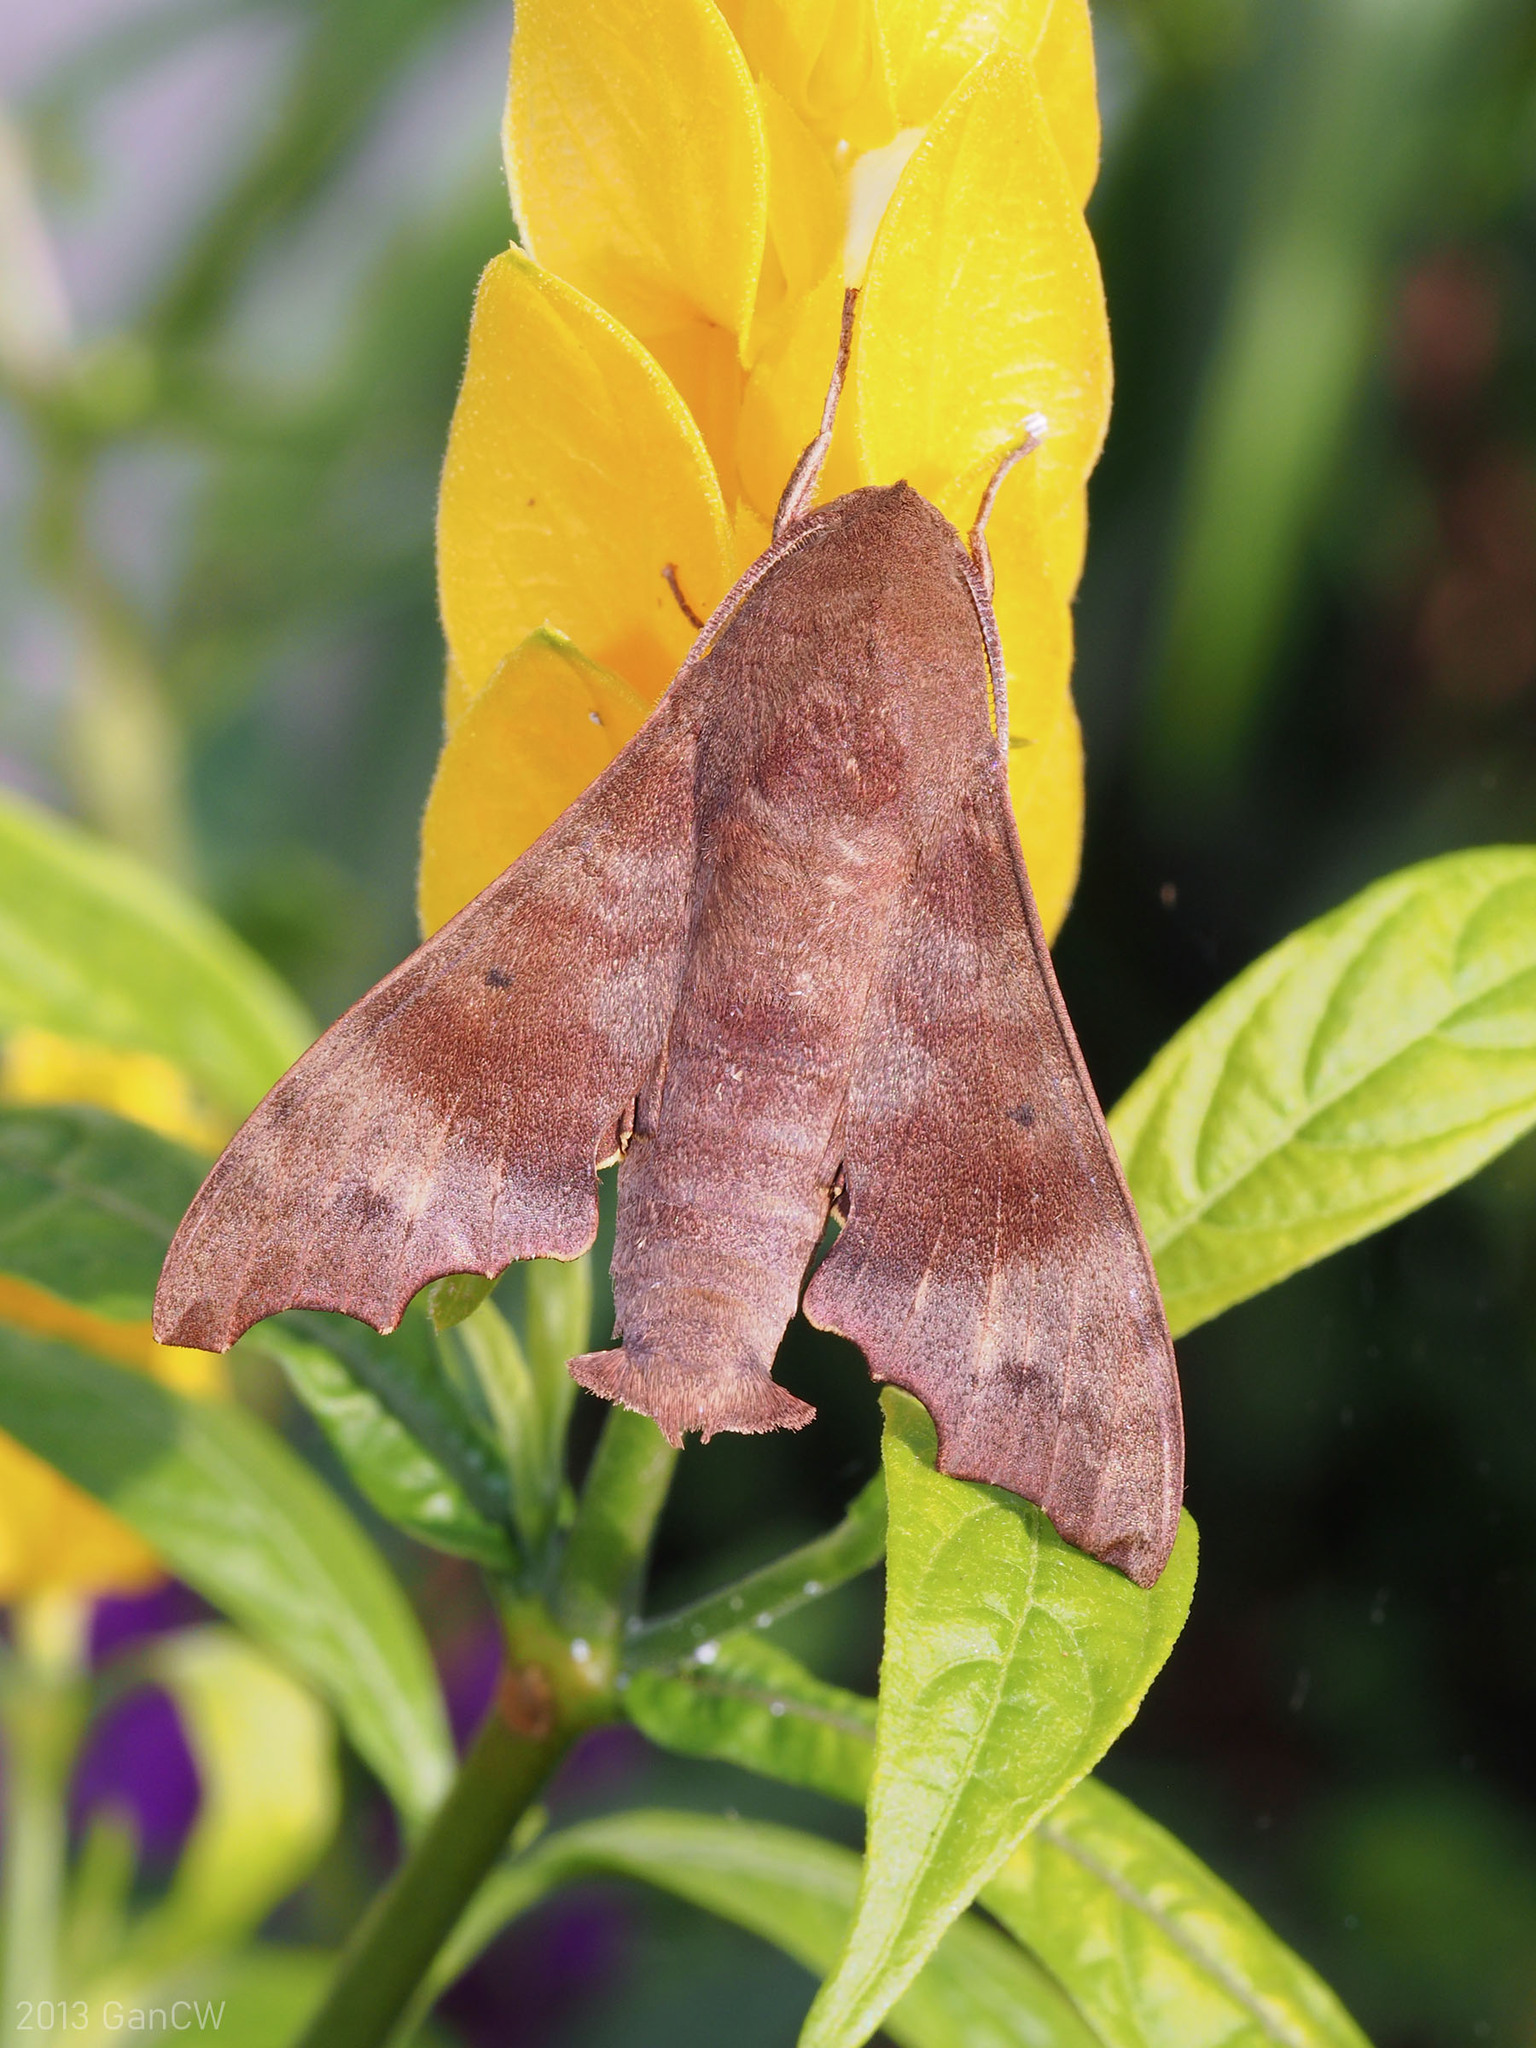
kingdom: Animalia
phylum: Arthropoda
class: Insecta
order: Lepidoptera
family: Sphingidae
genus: Cypa
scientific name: Cypa decolor
